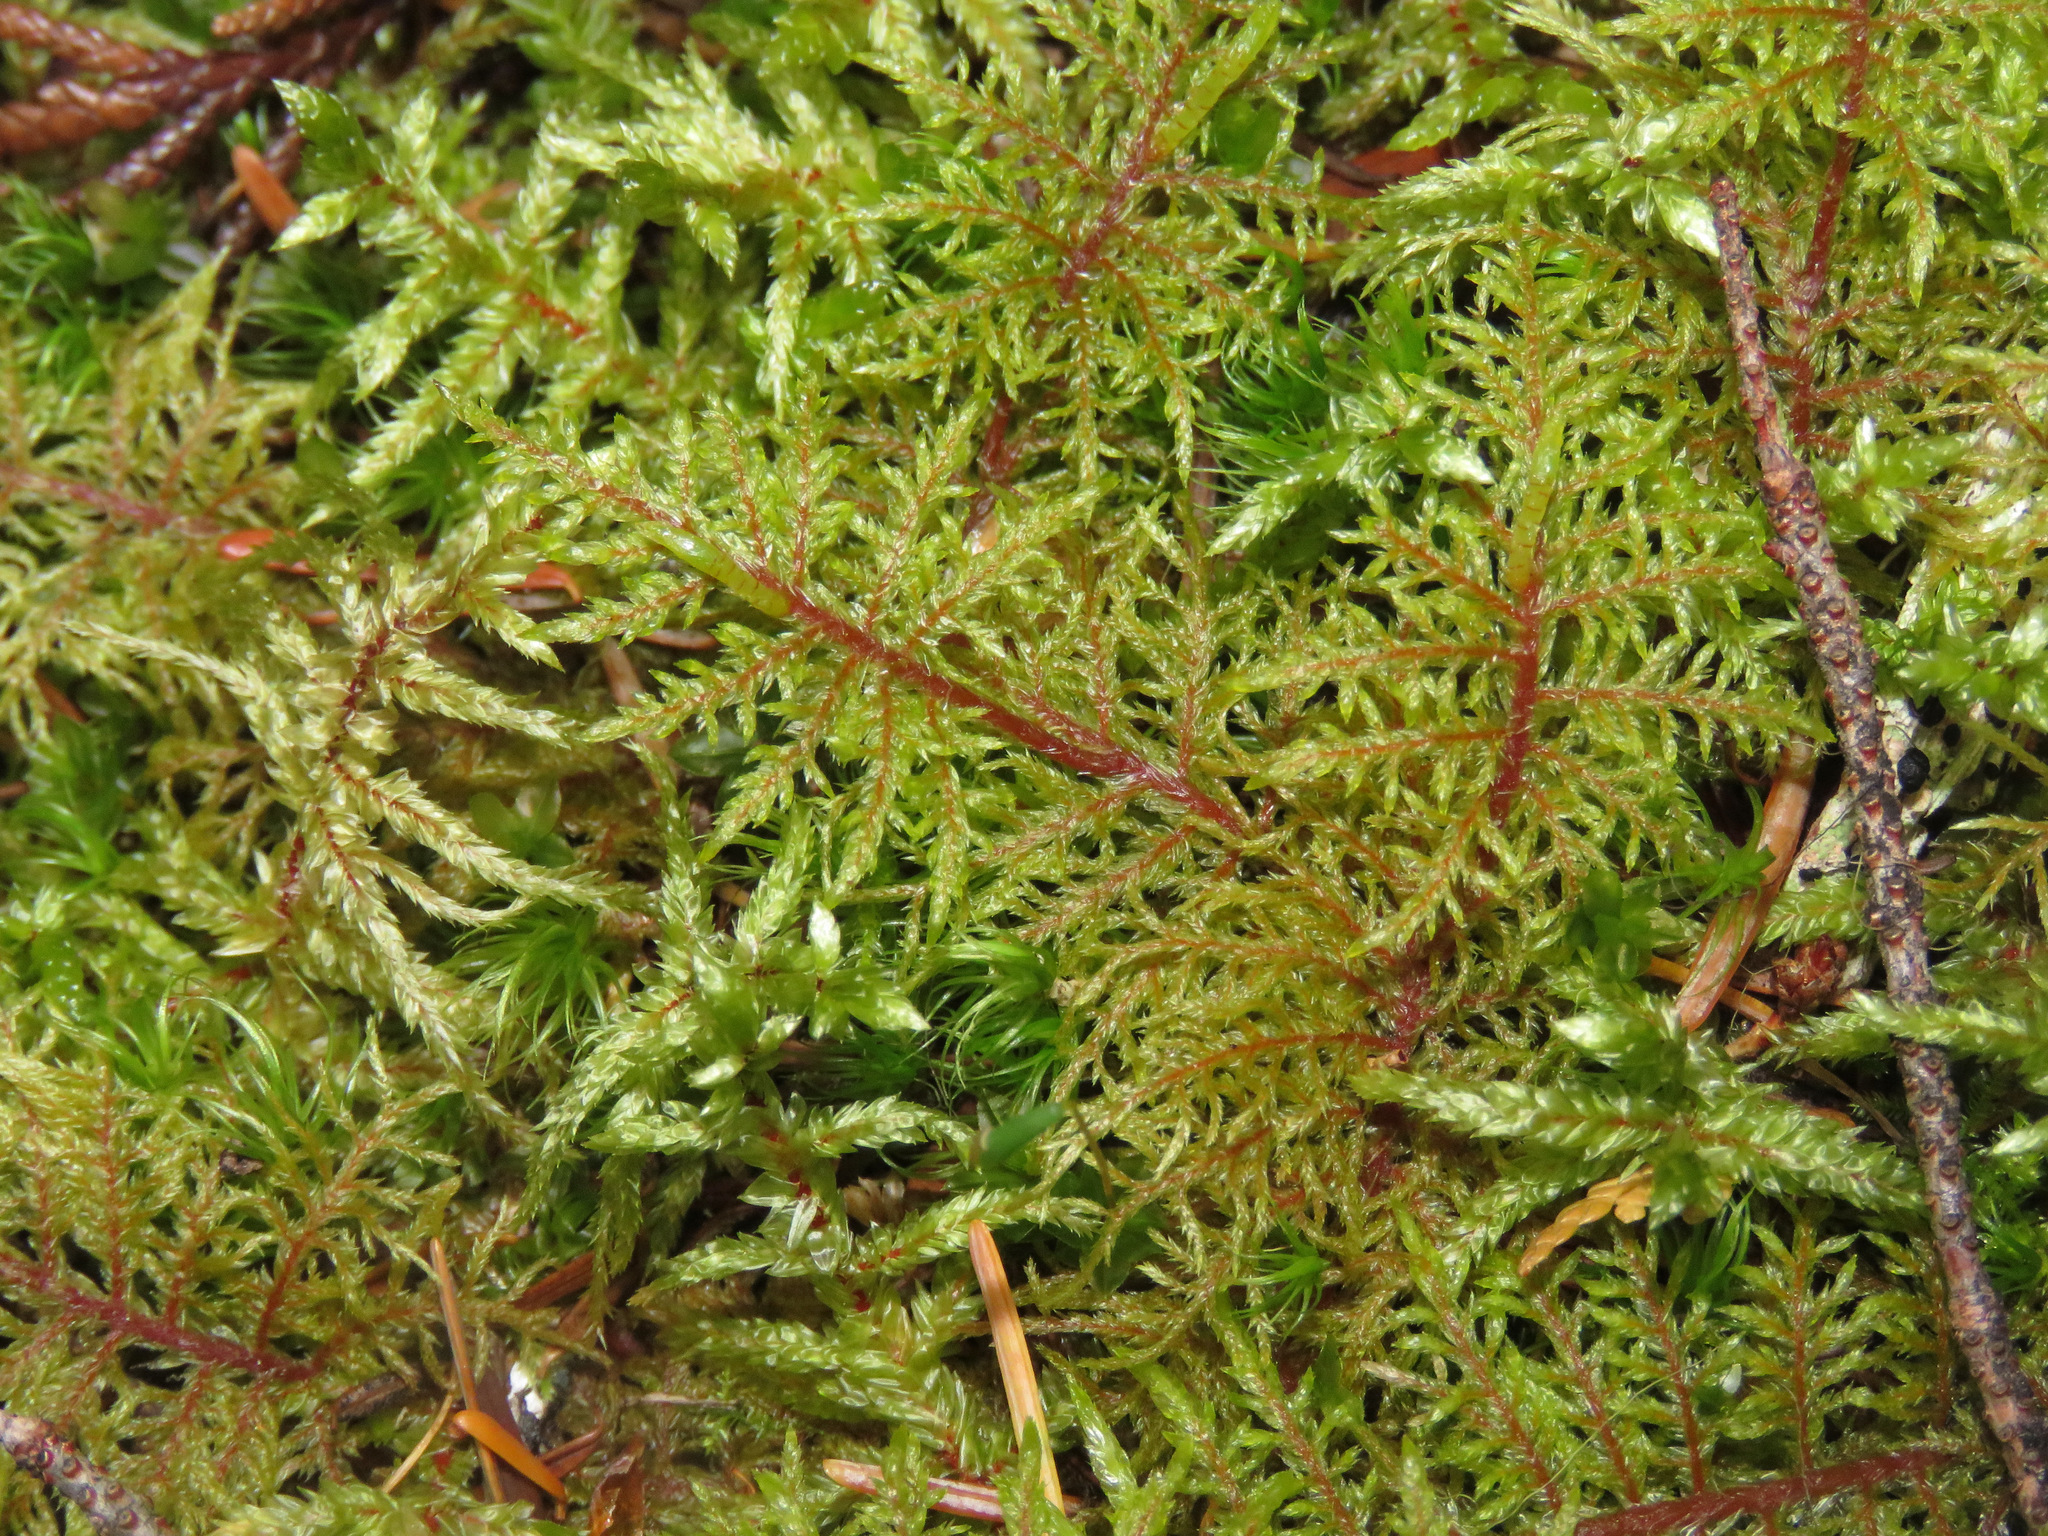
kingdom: Plantae
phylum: Bryophyta
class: Bryopsida
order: Hypnales
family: Hylocomiaceae
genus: Hylocomium
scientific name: Hylocomium splendens
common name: Stairstep moss
